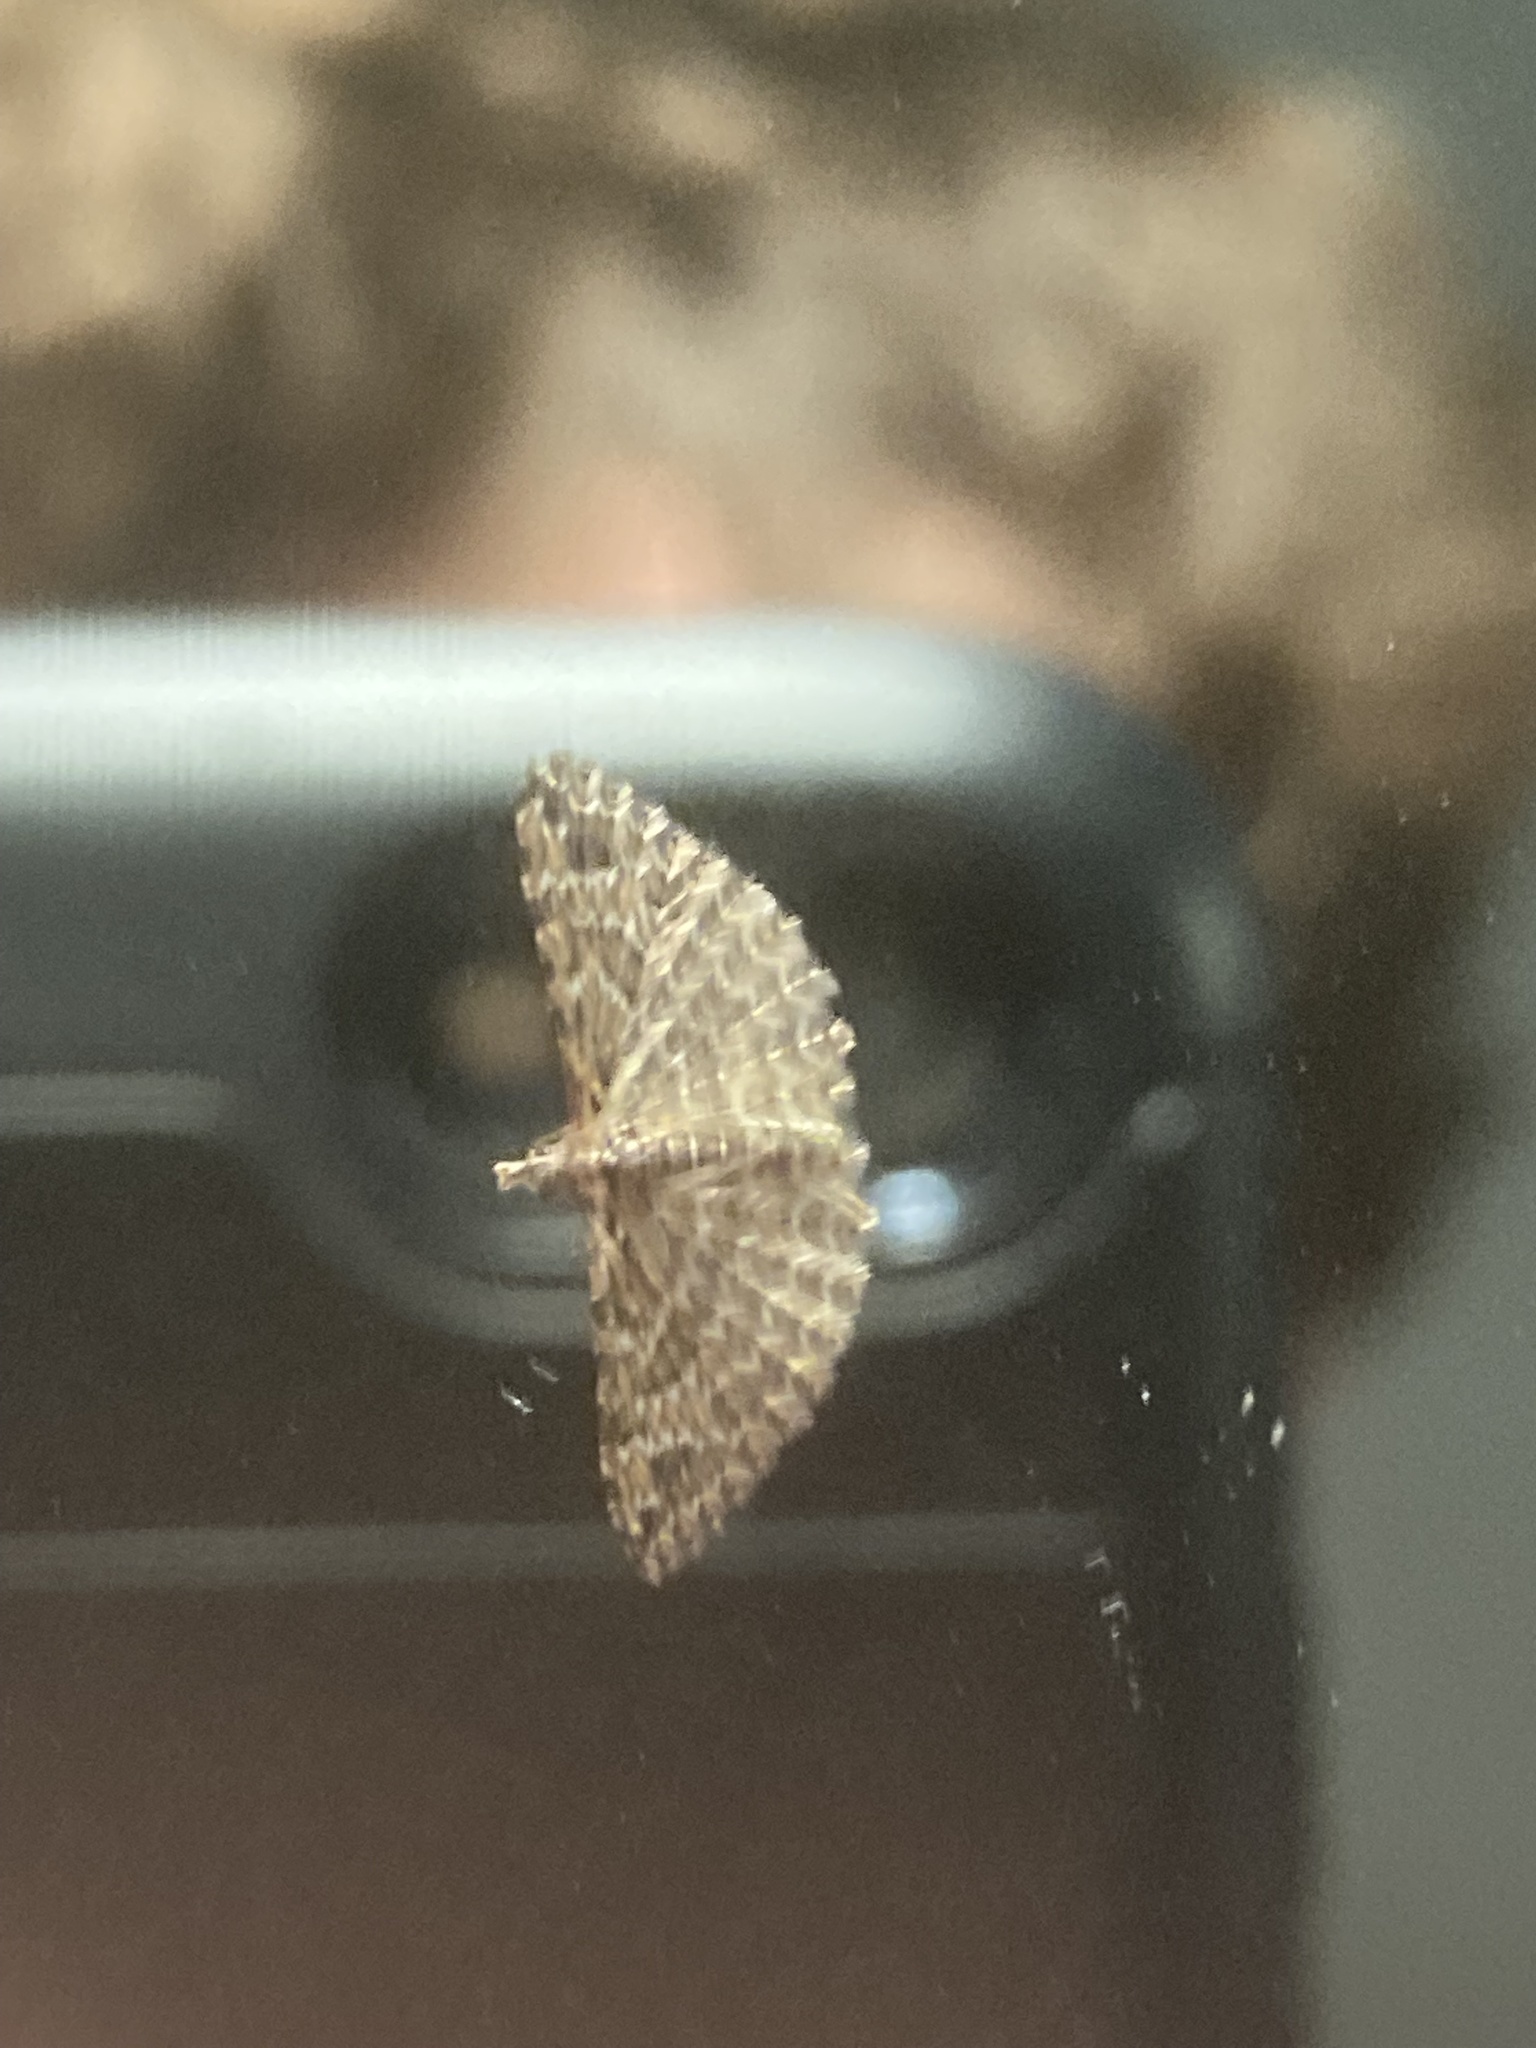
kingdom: Animalia
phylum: Arthropoda
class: Insecta
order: Lepidoptera
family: Alucitidae
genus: Alucita
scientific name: Alucita montana
